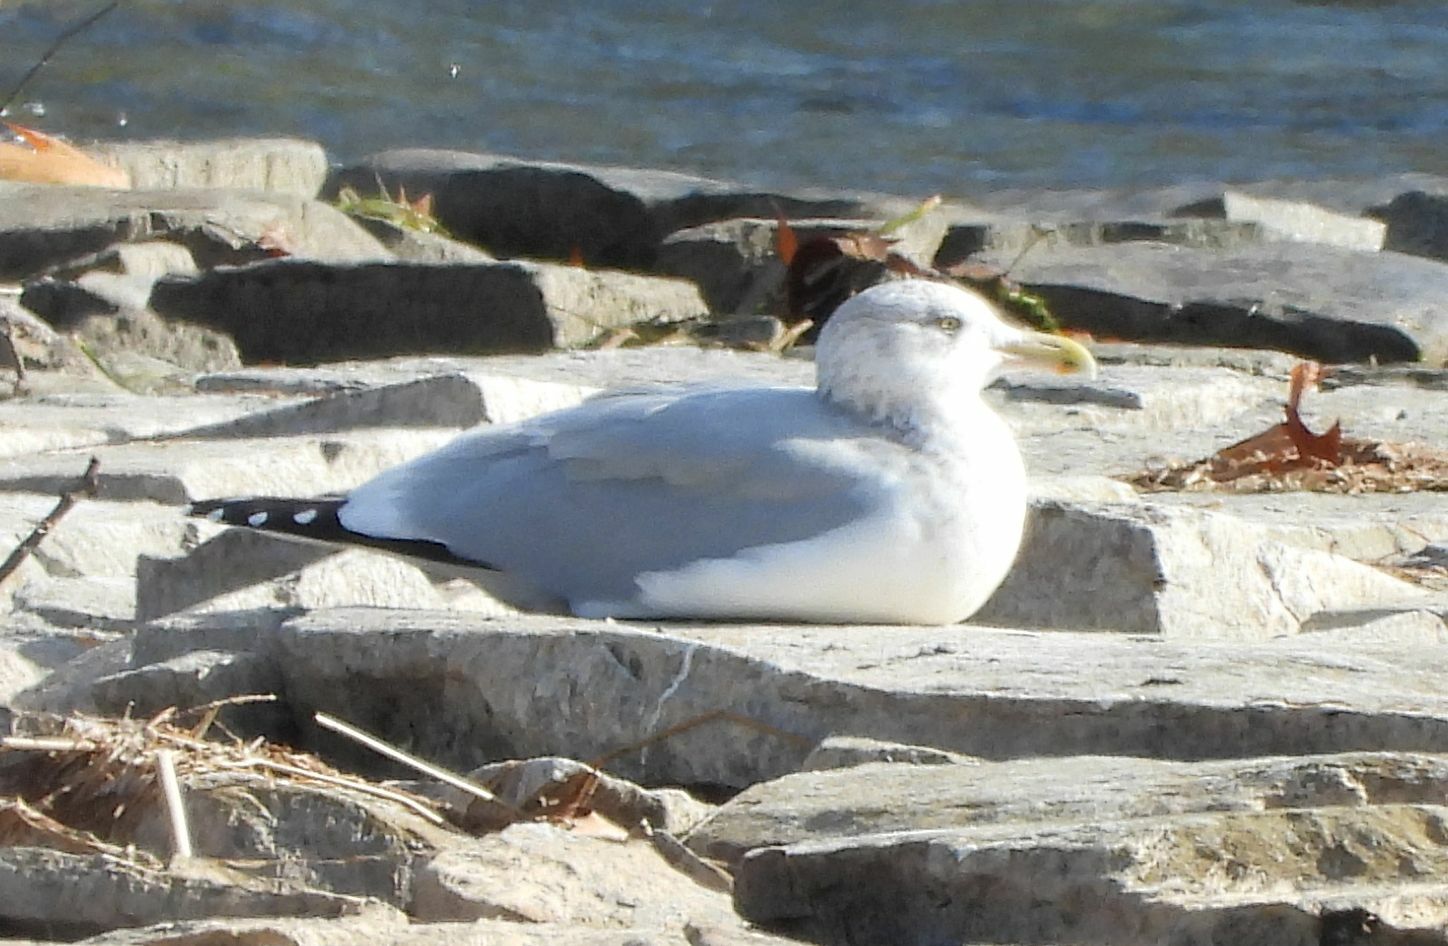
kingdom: Animalia
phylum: Chordata
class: Aves
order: Charadriiformes
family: Laridae
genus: Larus
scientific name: Larus argentatus
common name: Herring gull
